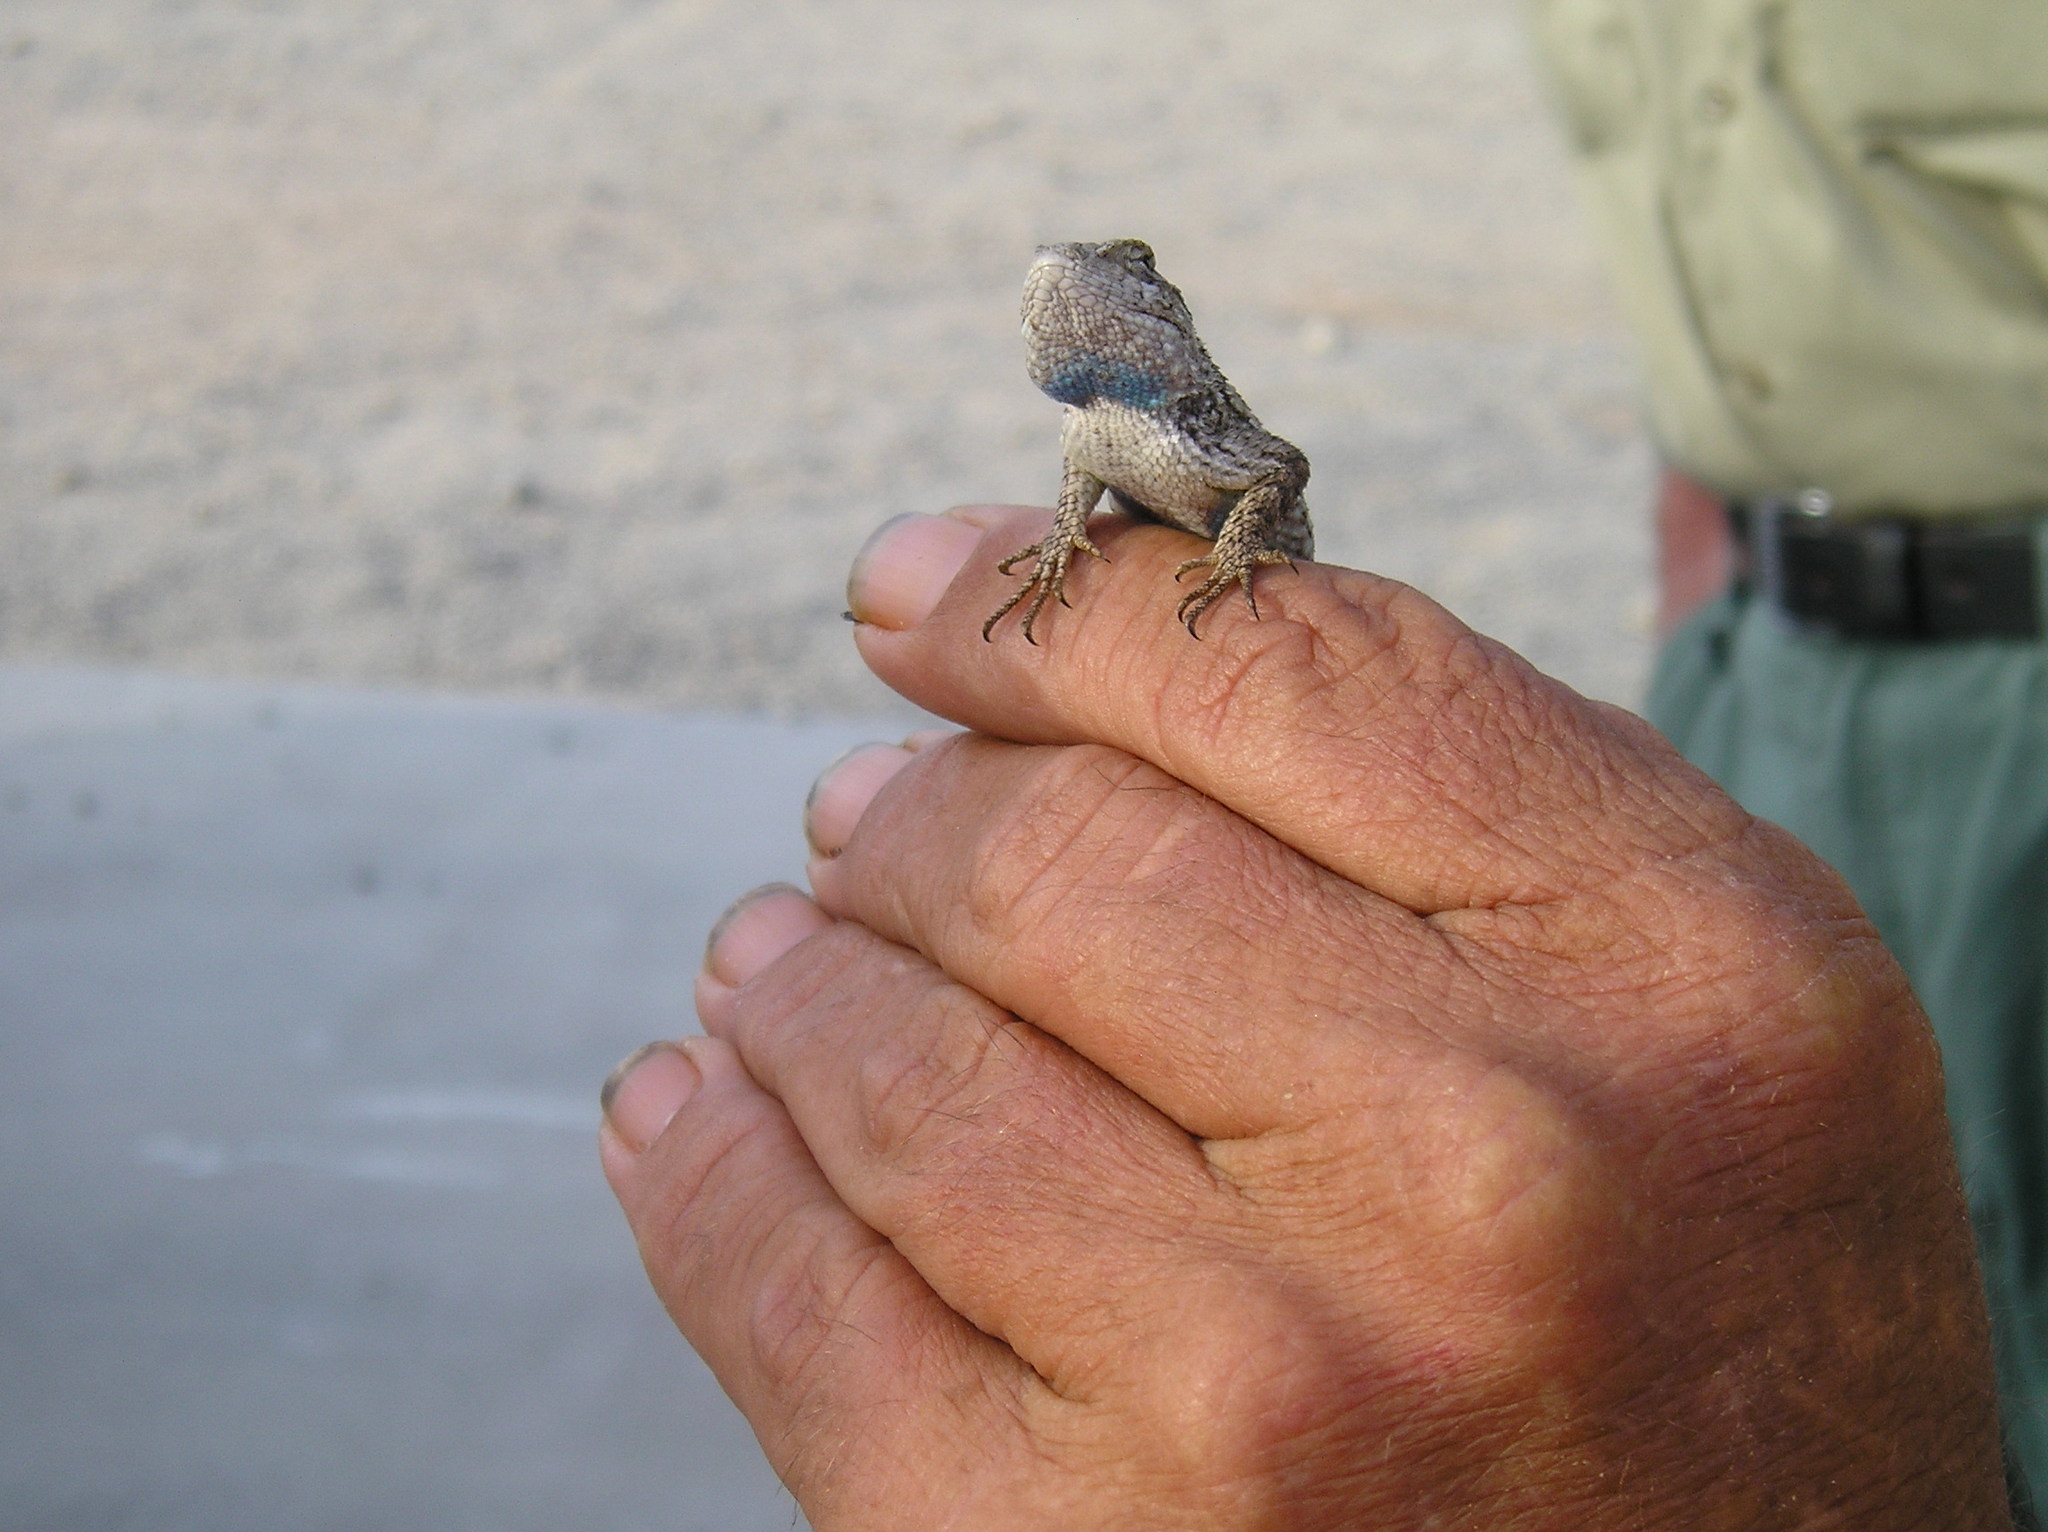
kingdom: Animalia
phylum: Chordata
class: Squamata
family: Phrynosomatidae
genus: Sceloporus
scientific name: Sceloporus occidentalis
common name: Western fence lizard
